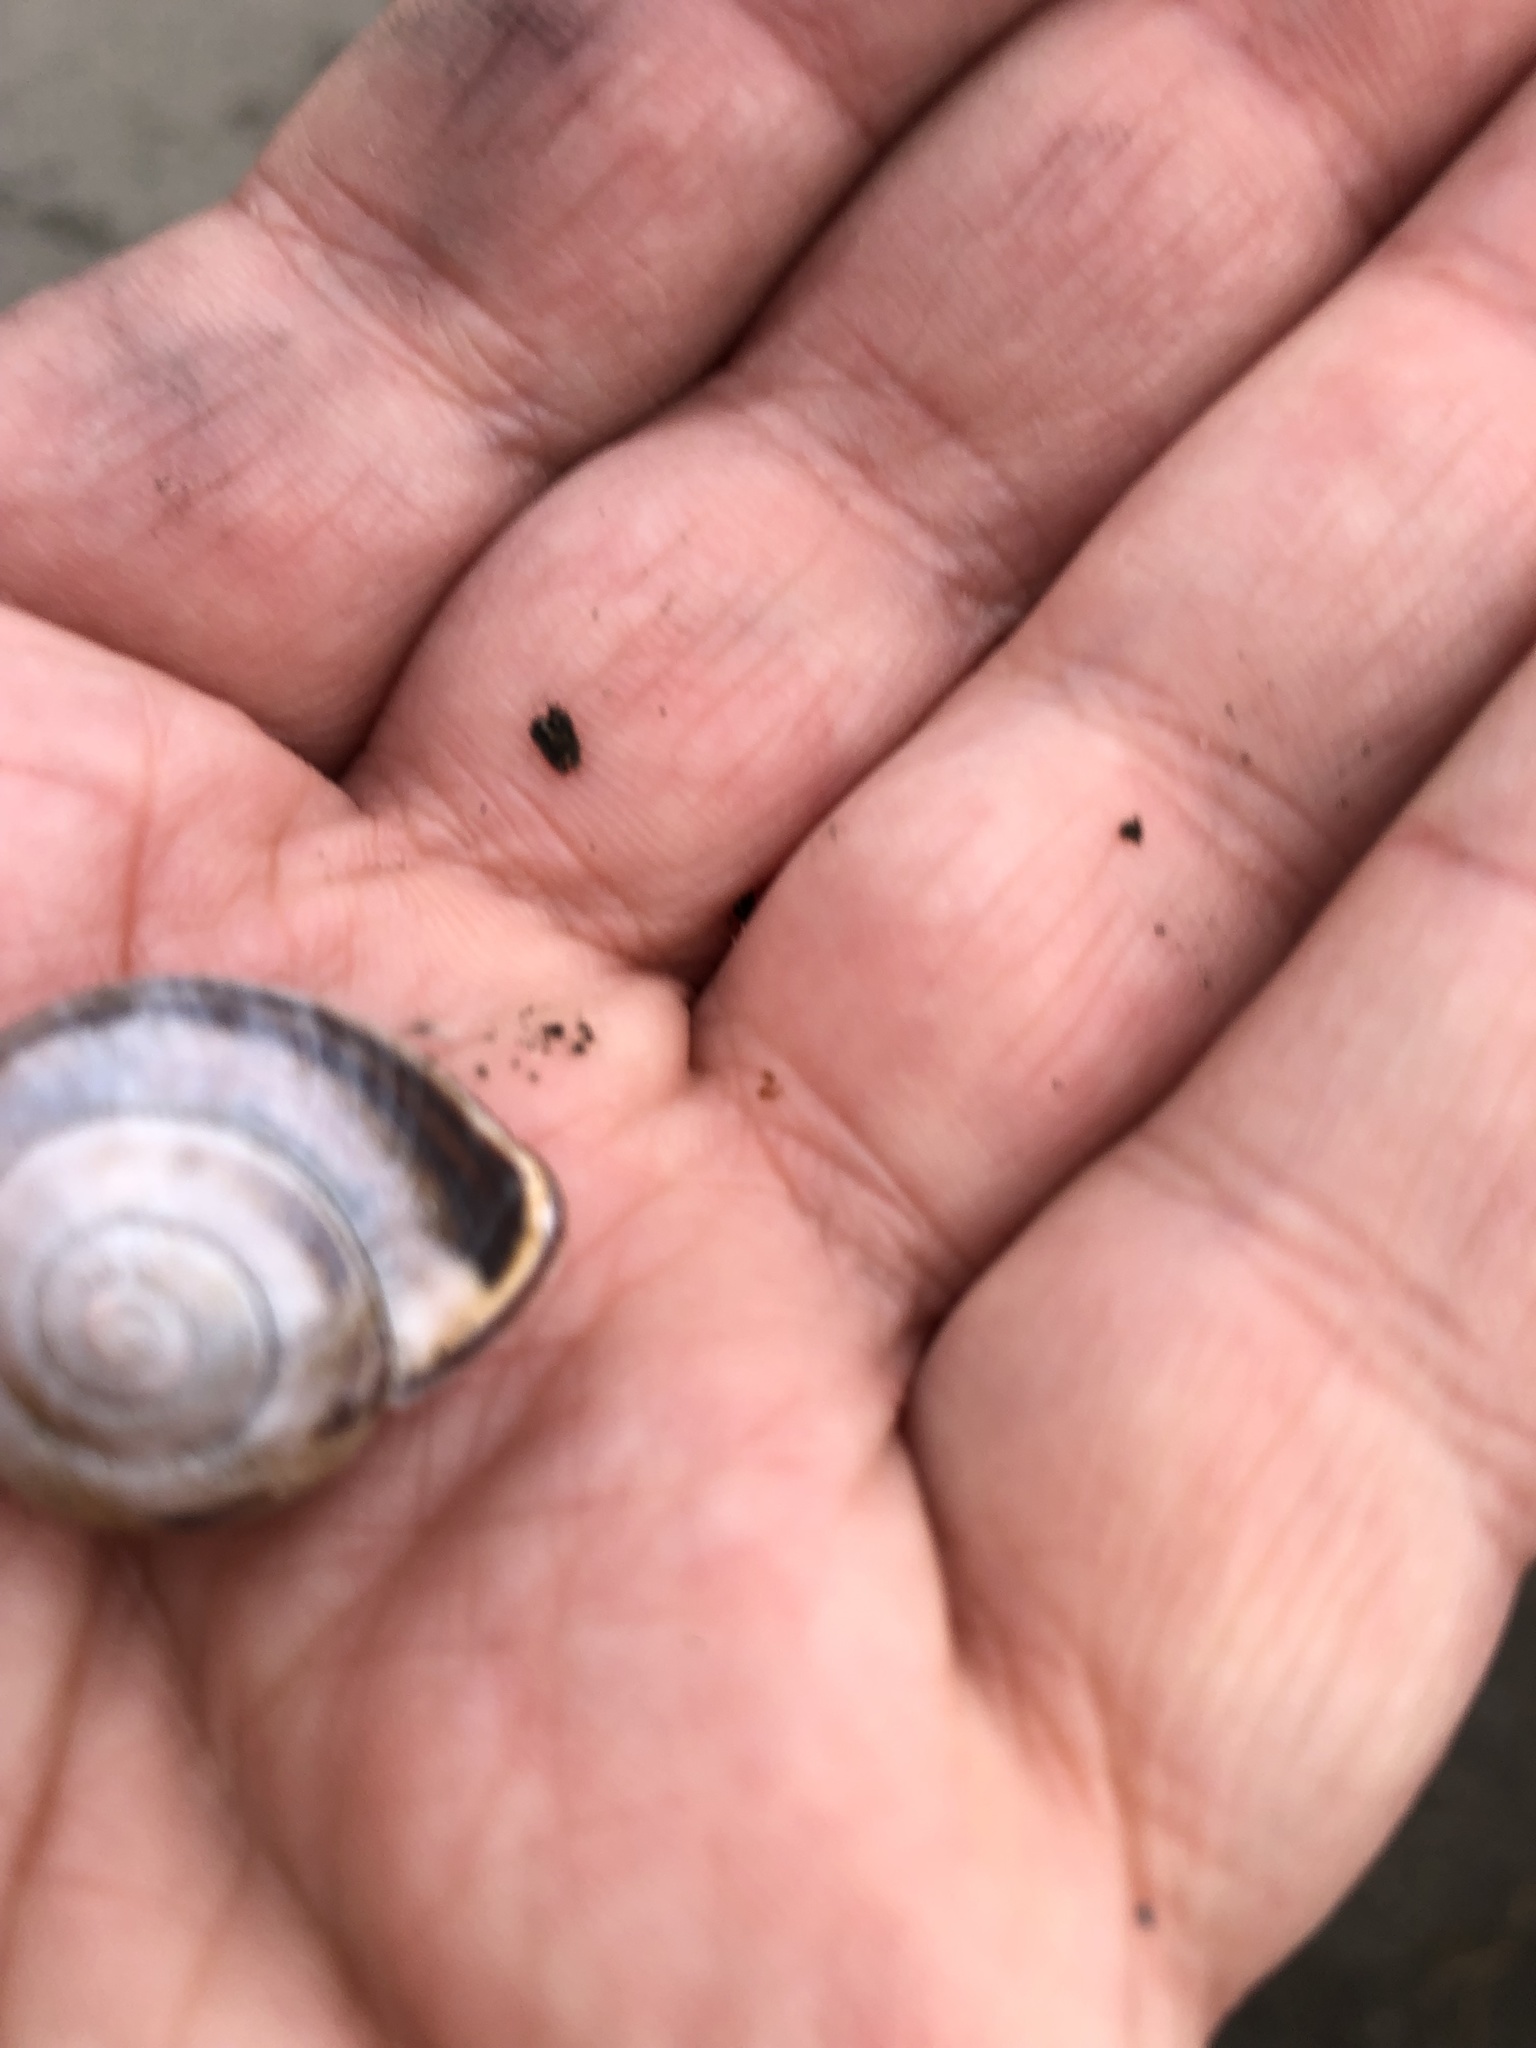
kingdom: Animalia
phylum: Mollusca
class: Gastropoda
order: Stylommatophora
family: Helicidae
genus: Cepaea
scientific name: Cepaea nemoralis
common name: Grovesnail
